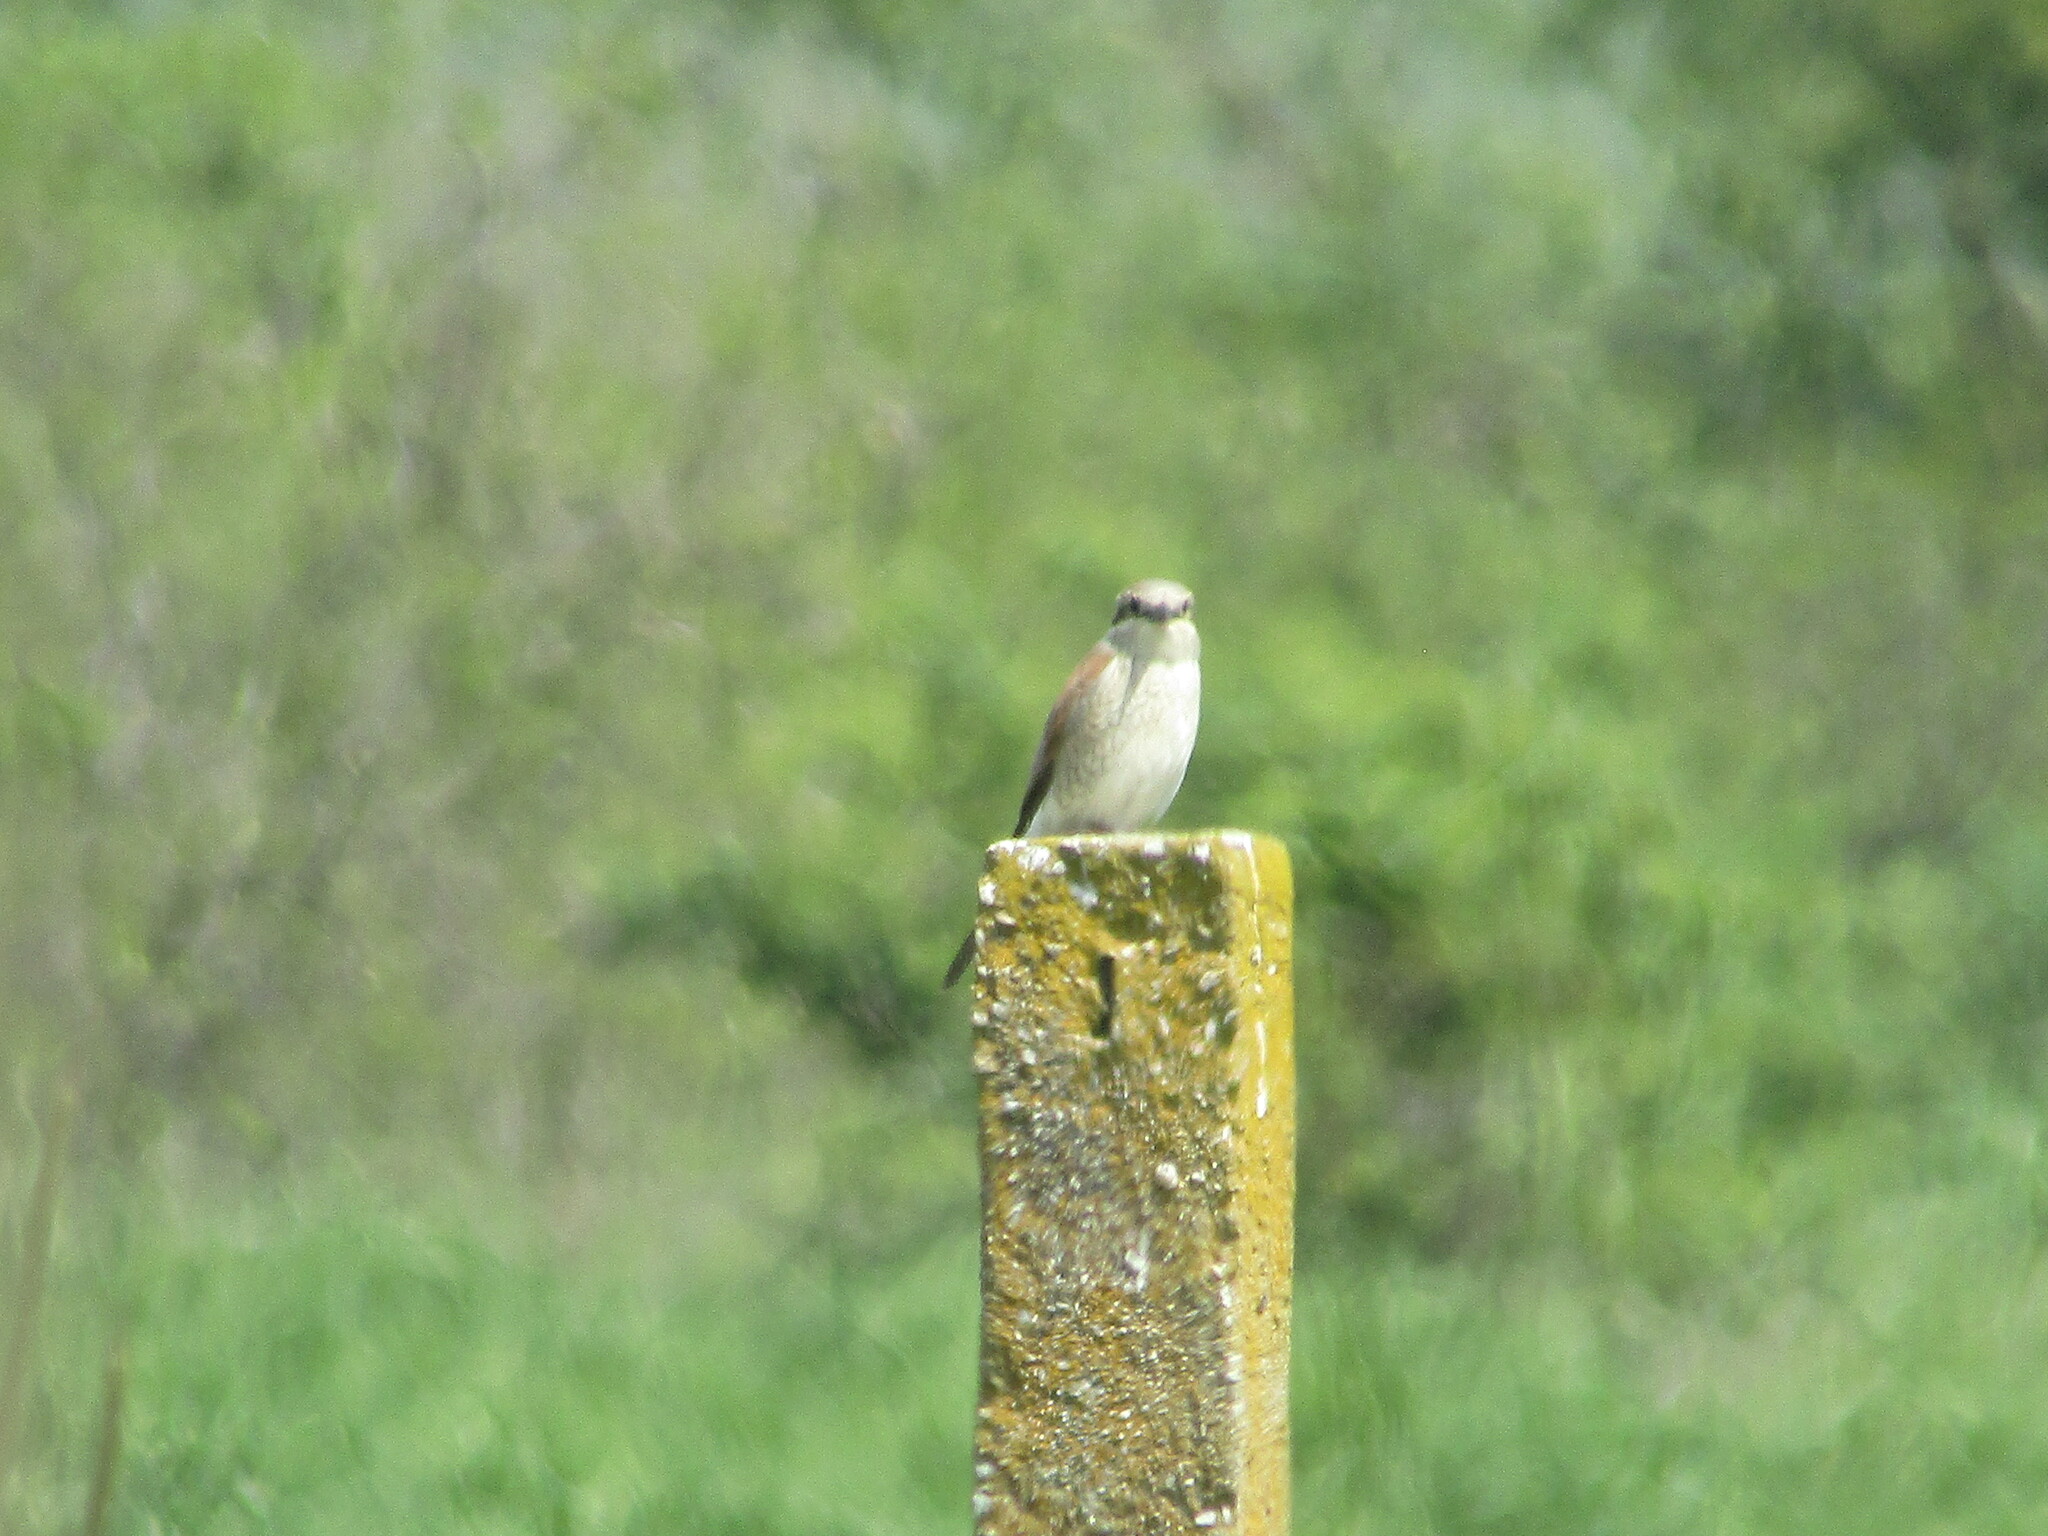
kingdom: Animalia
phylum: Chordata
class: Aves
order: Passeriformes
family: Laniidae
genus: Lanius
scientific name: Lanius collurio
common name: Red-backed shrike
